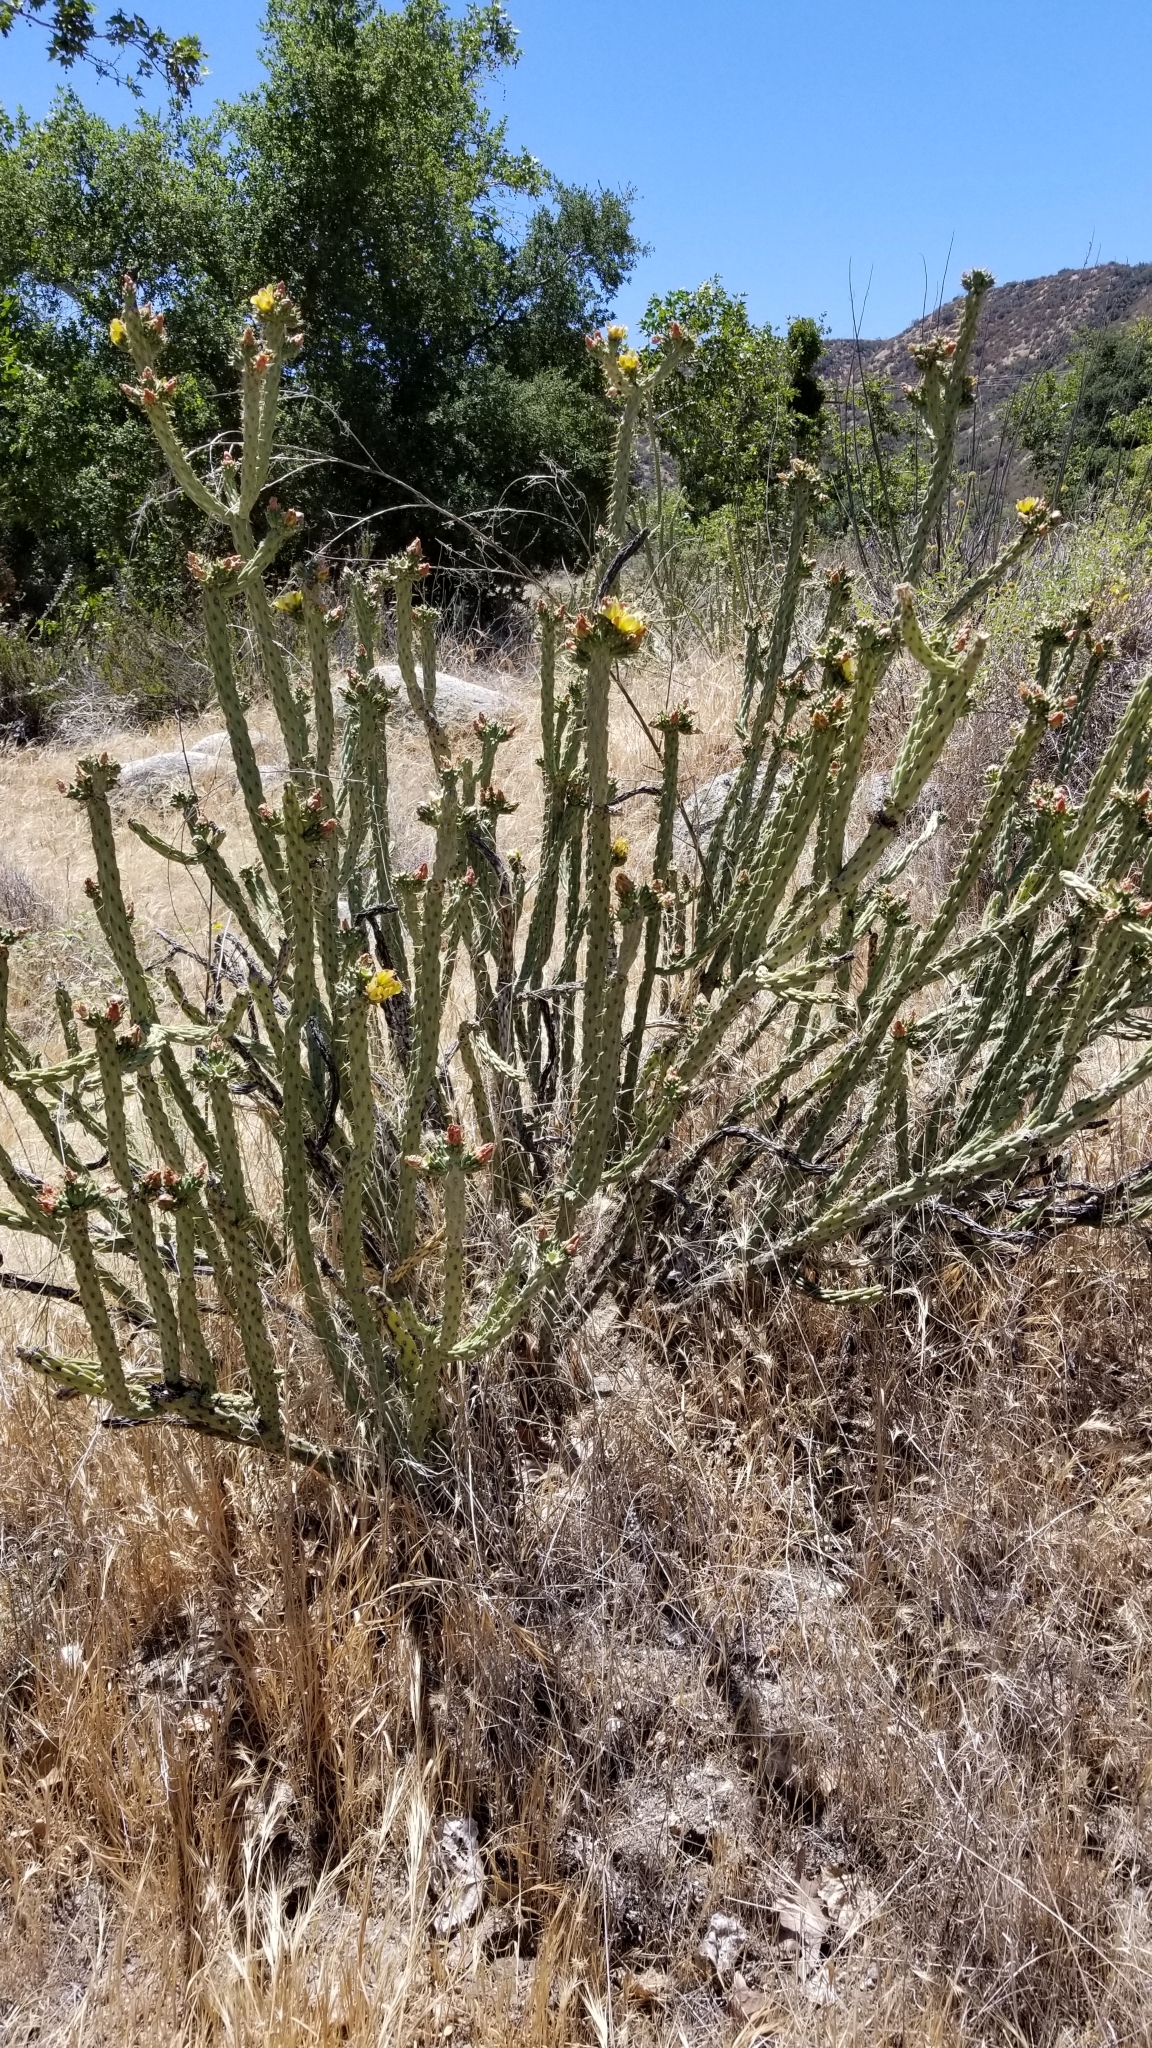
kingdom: Plantae
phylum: Tracheophyta
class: Magnoliopsida
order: Caryophyllales
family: Cactaceae
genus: Cylindropuntia
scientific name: Cylindropuntia bernardina
